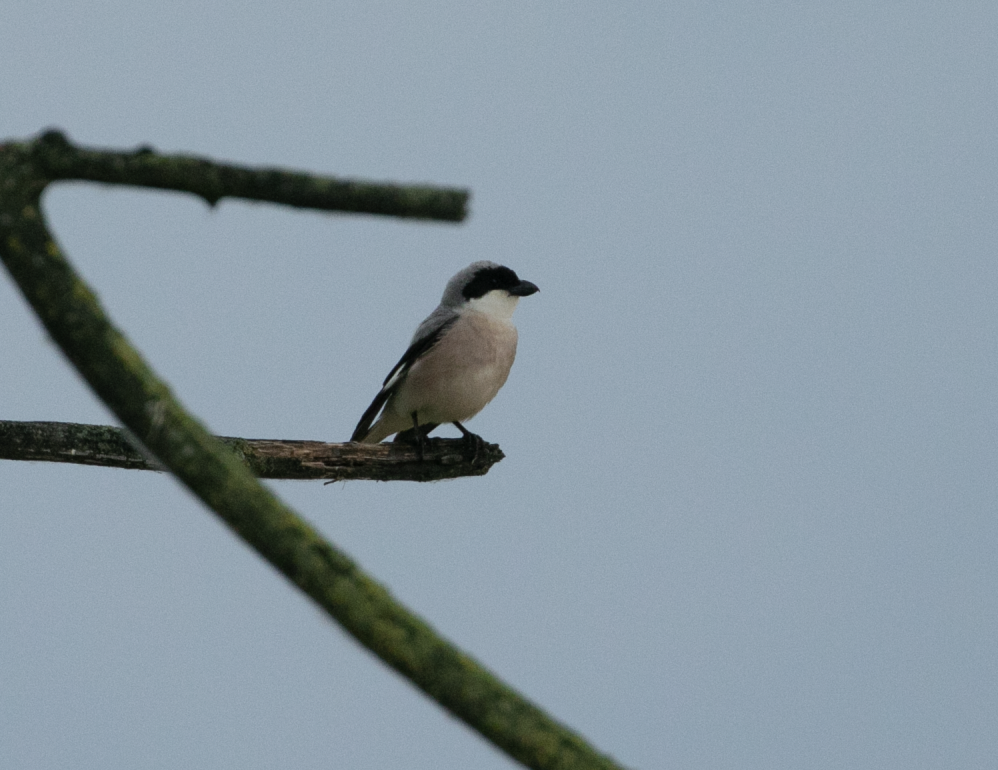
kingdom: Animalia
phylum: Chordata
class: Aves
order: Passeriformes
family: Laniidae
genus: Lanius
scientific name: Lanius minor
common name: Lesser grey shrike
